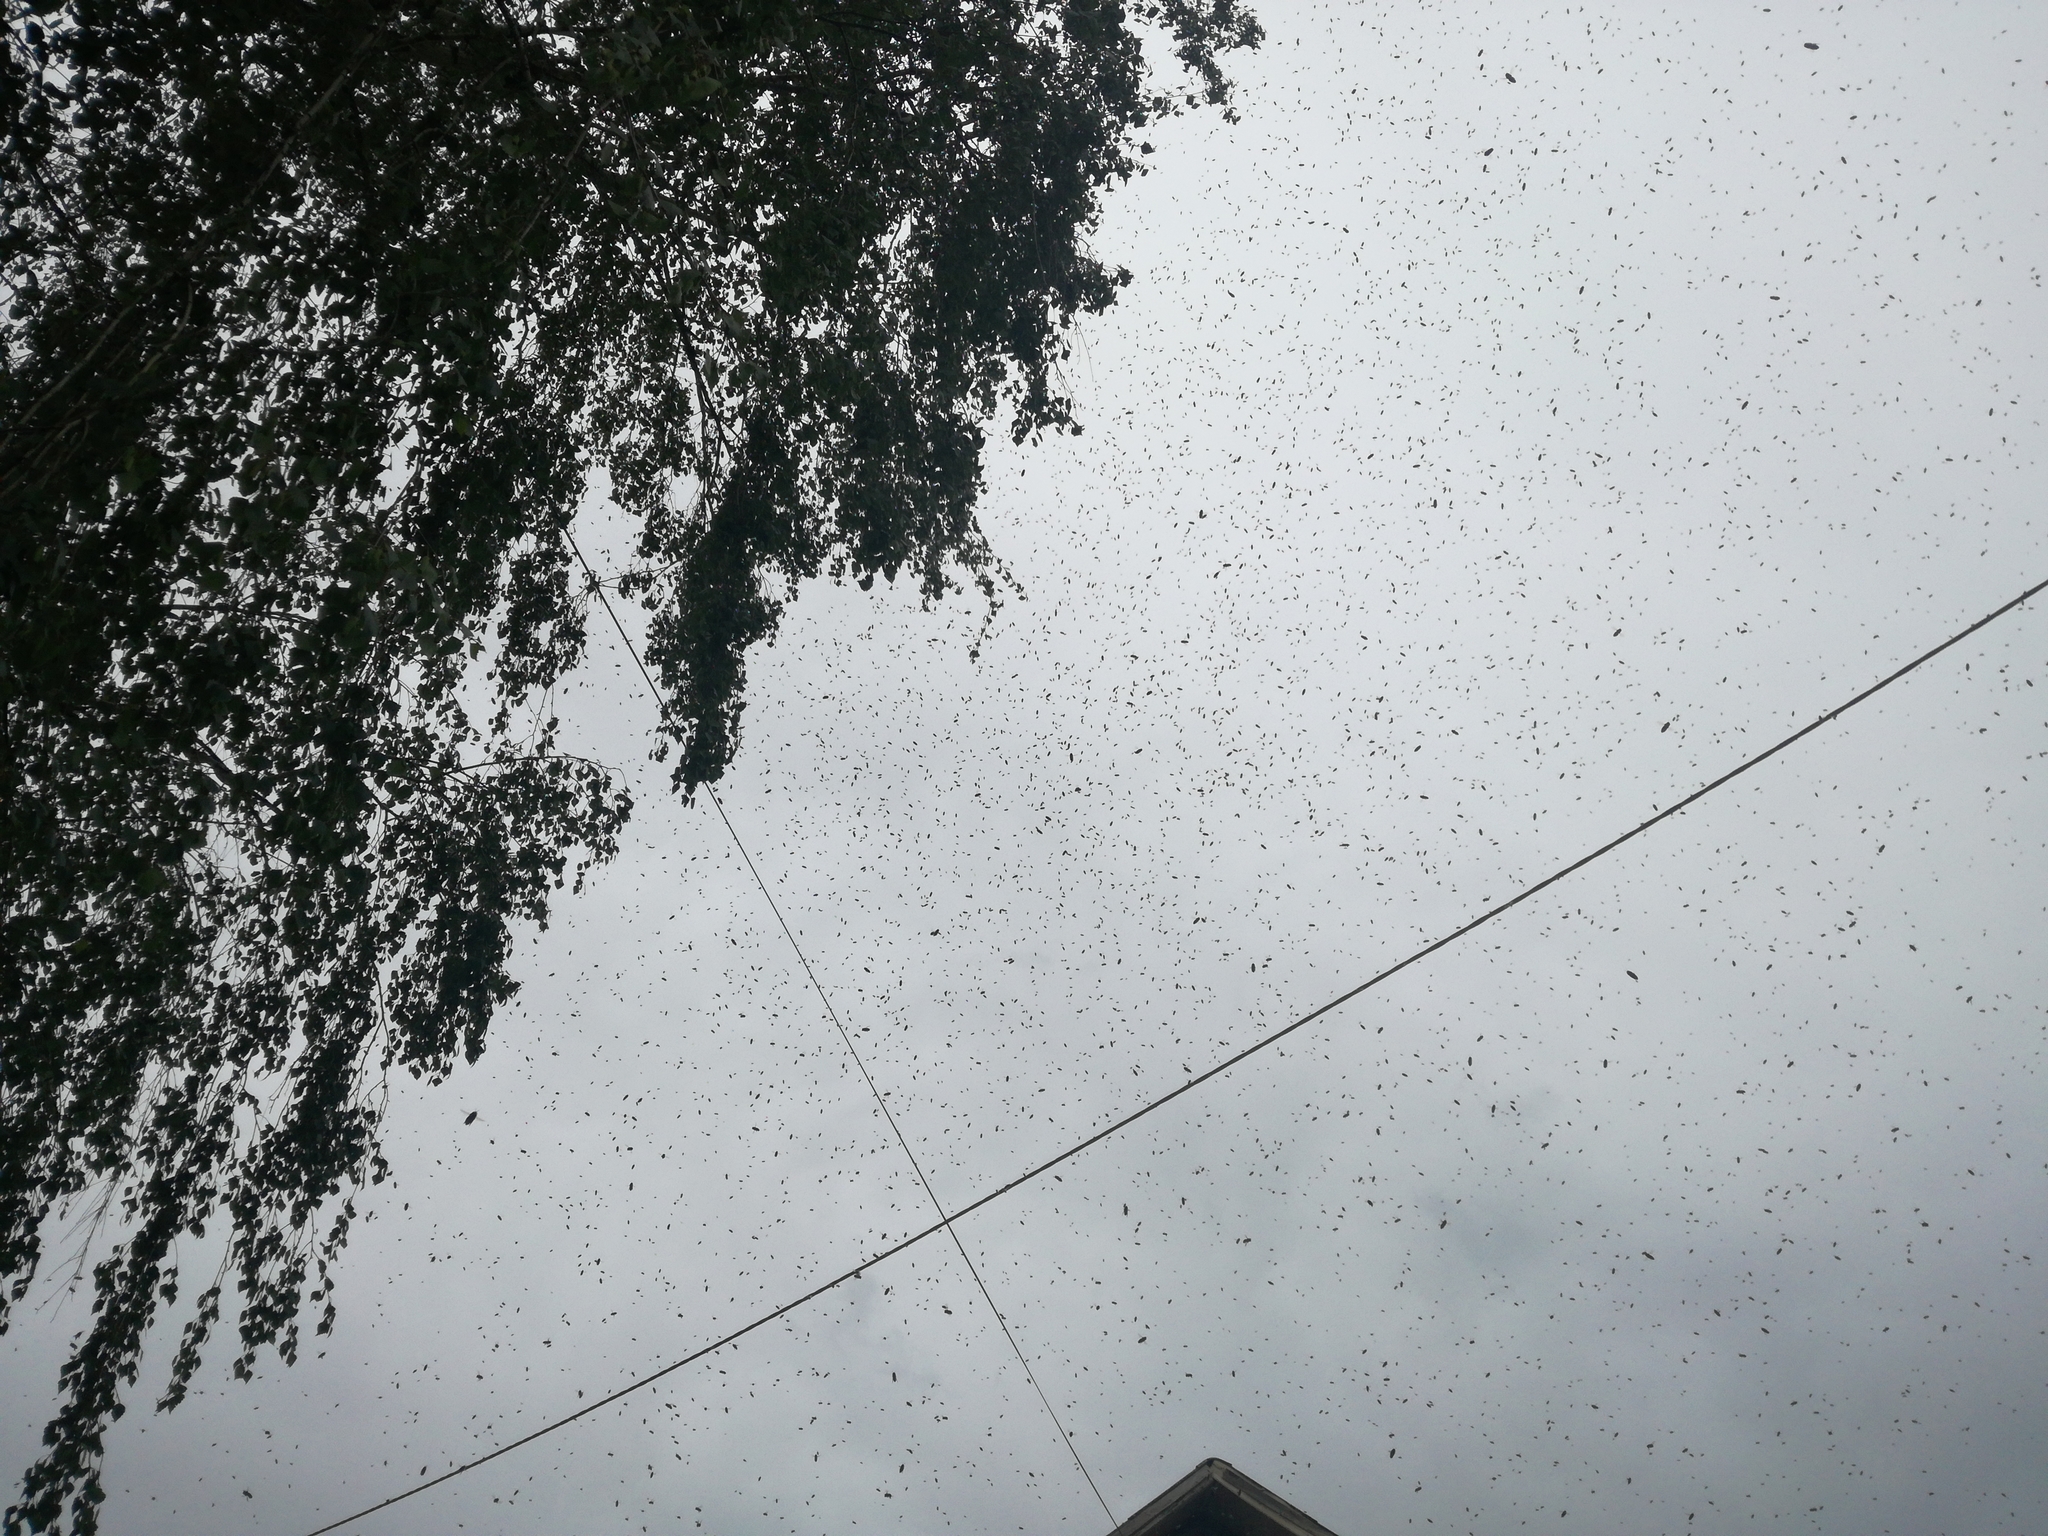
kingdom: Animalia
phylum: Arthropoda
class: Insecta
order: Hymenoptera
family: Apidae
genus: Apis
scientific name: Apis mellifera
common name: Honey bee
